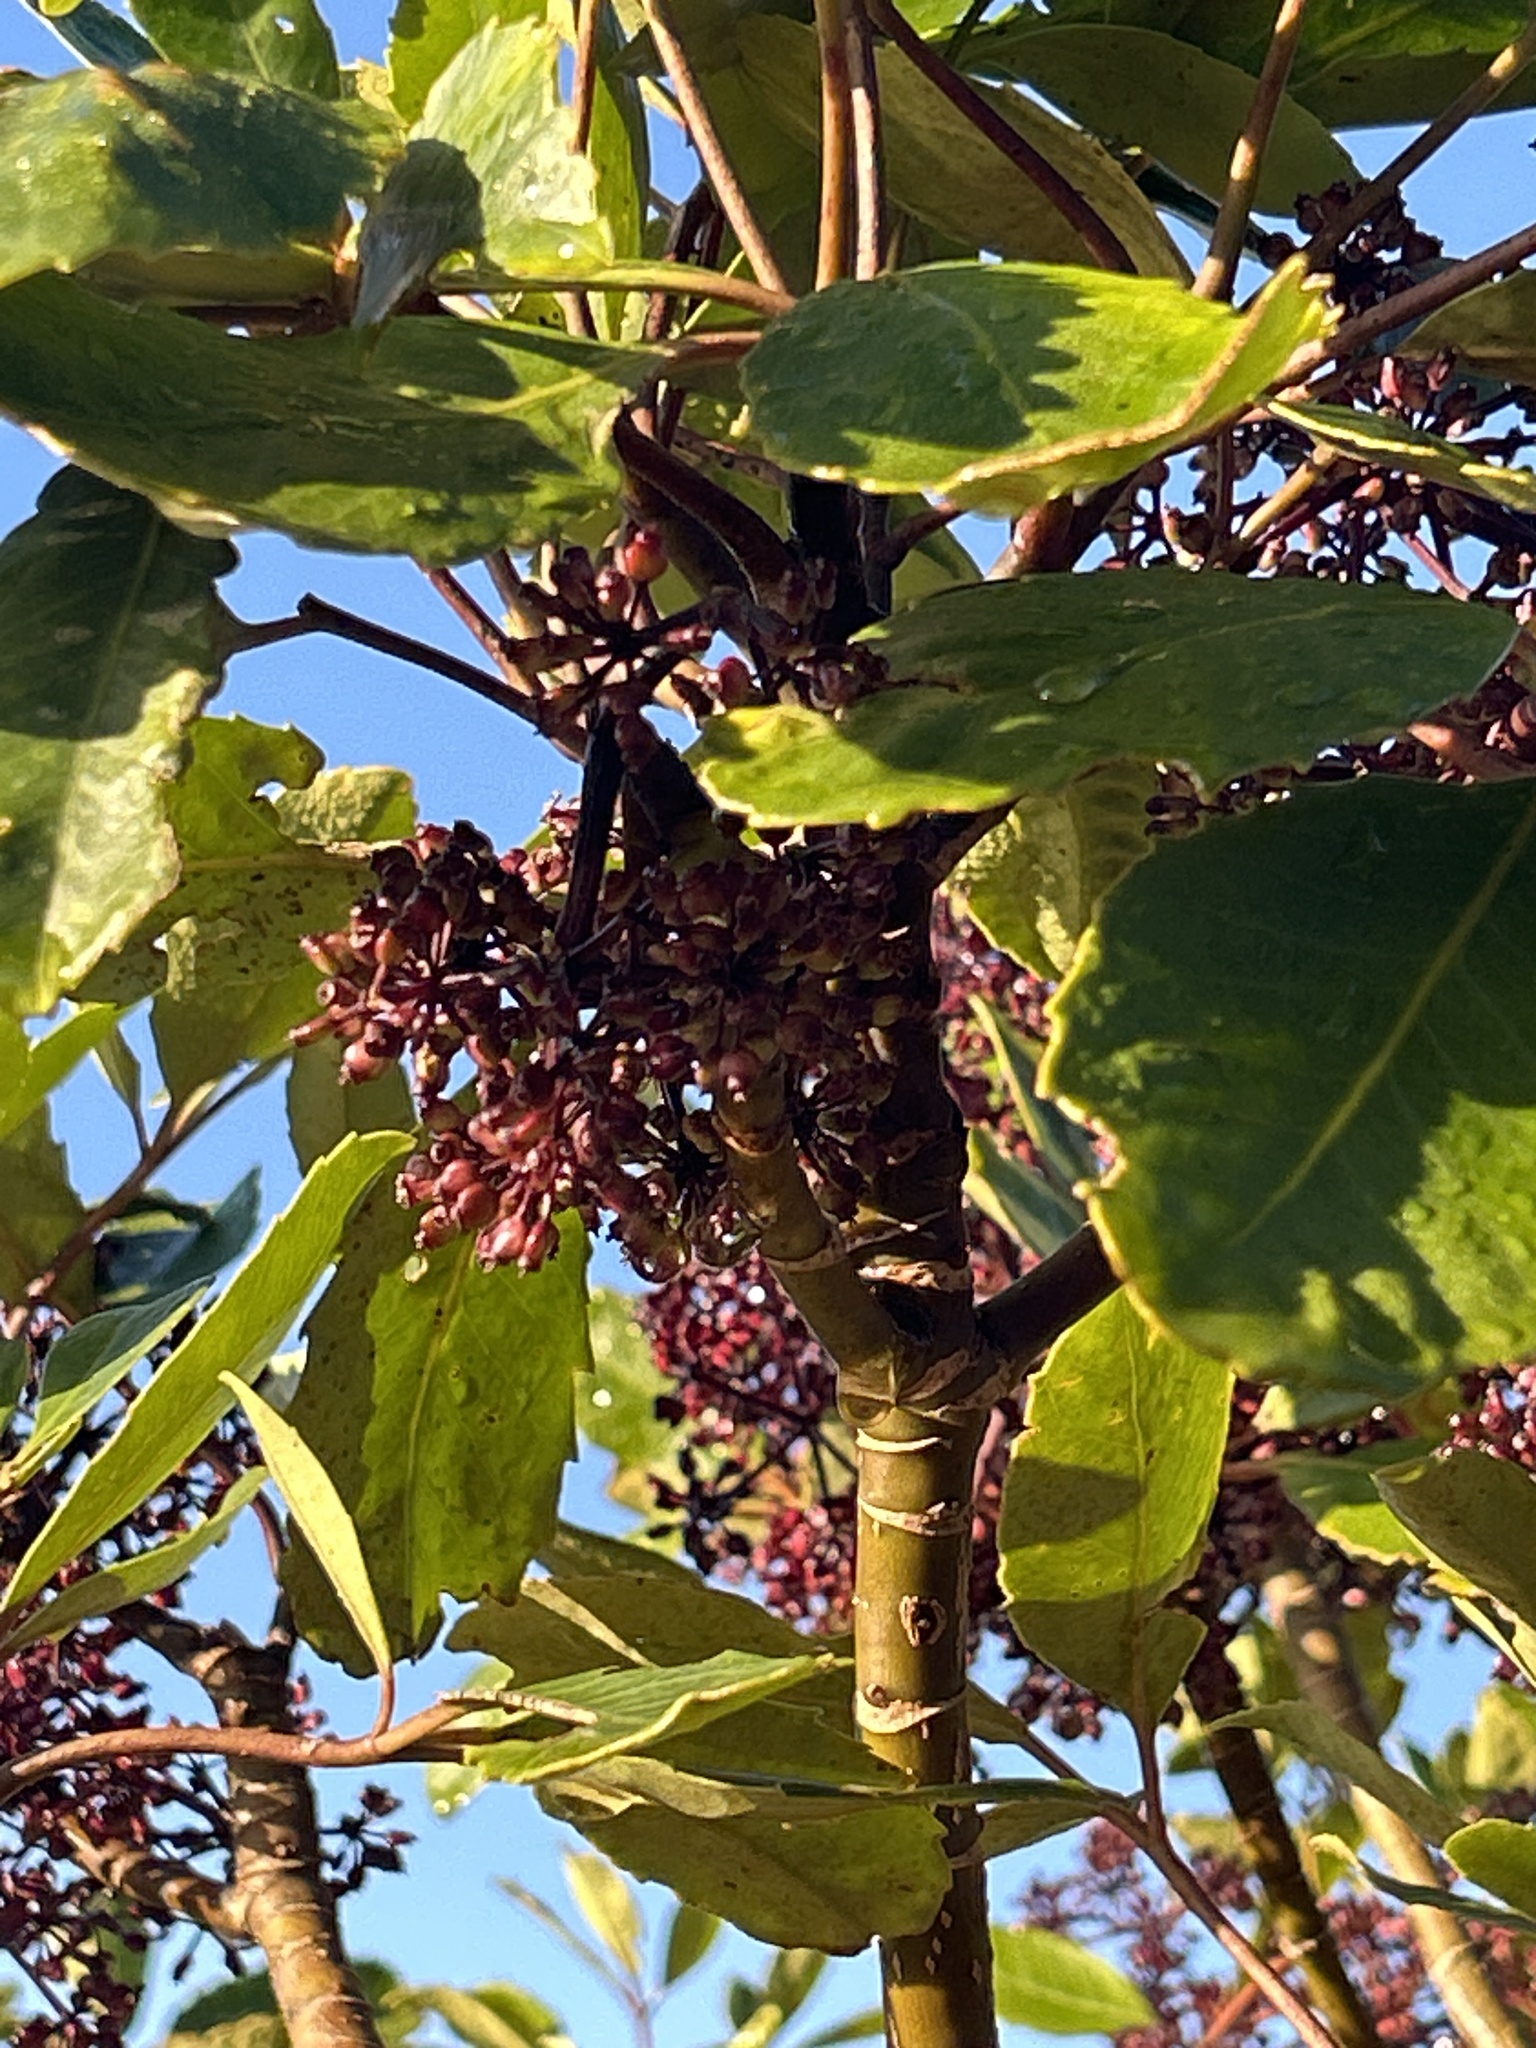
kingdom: Plantae
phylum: Tracheophyta
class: Magnoliopsida
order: Apiales
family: Araliaceae
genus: Neopanax
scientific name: Neopanax arboreus
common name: Five-fingers
